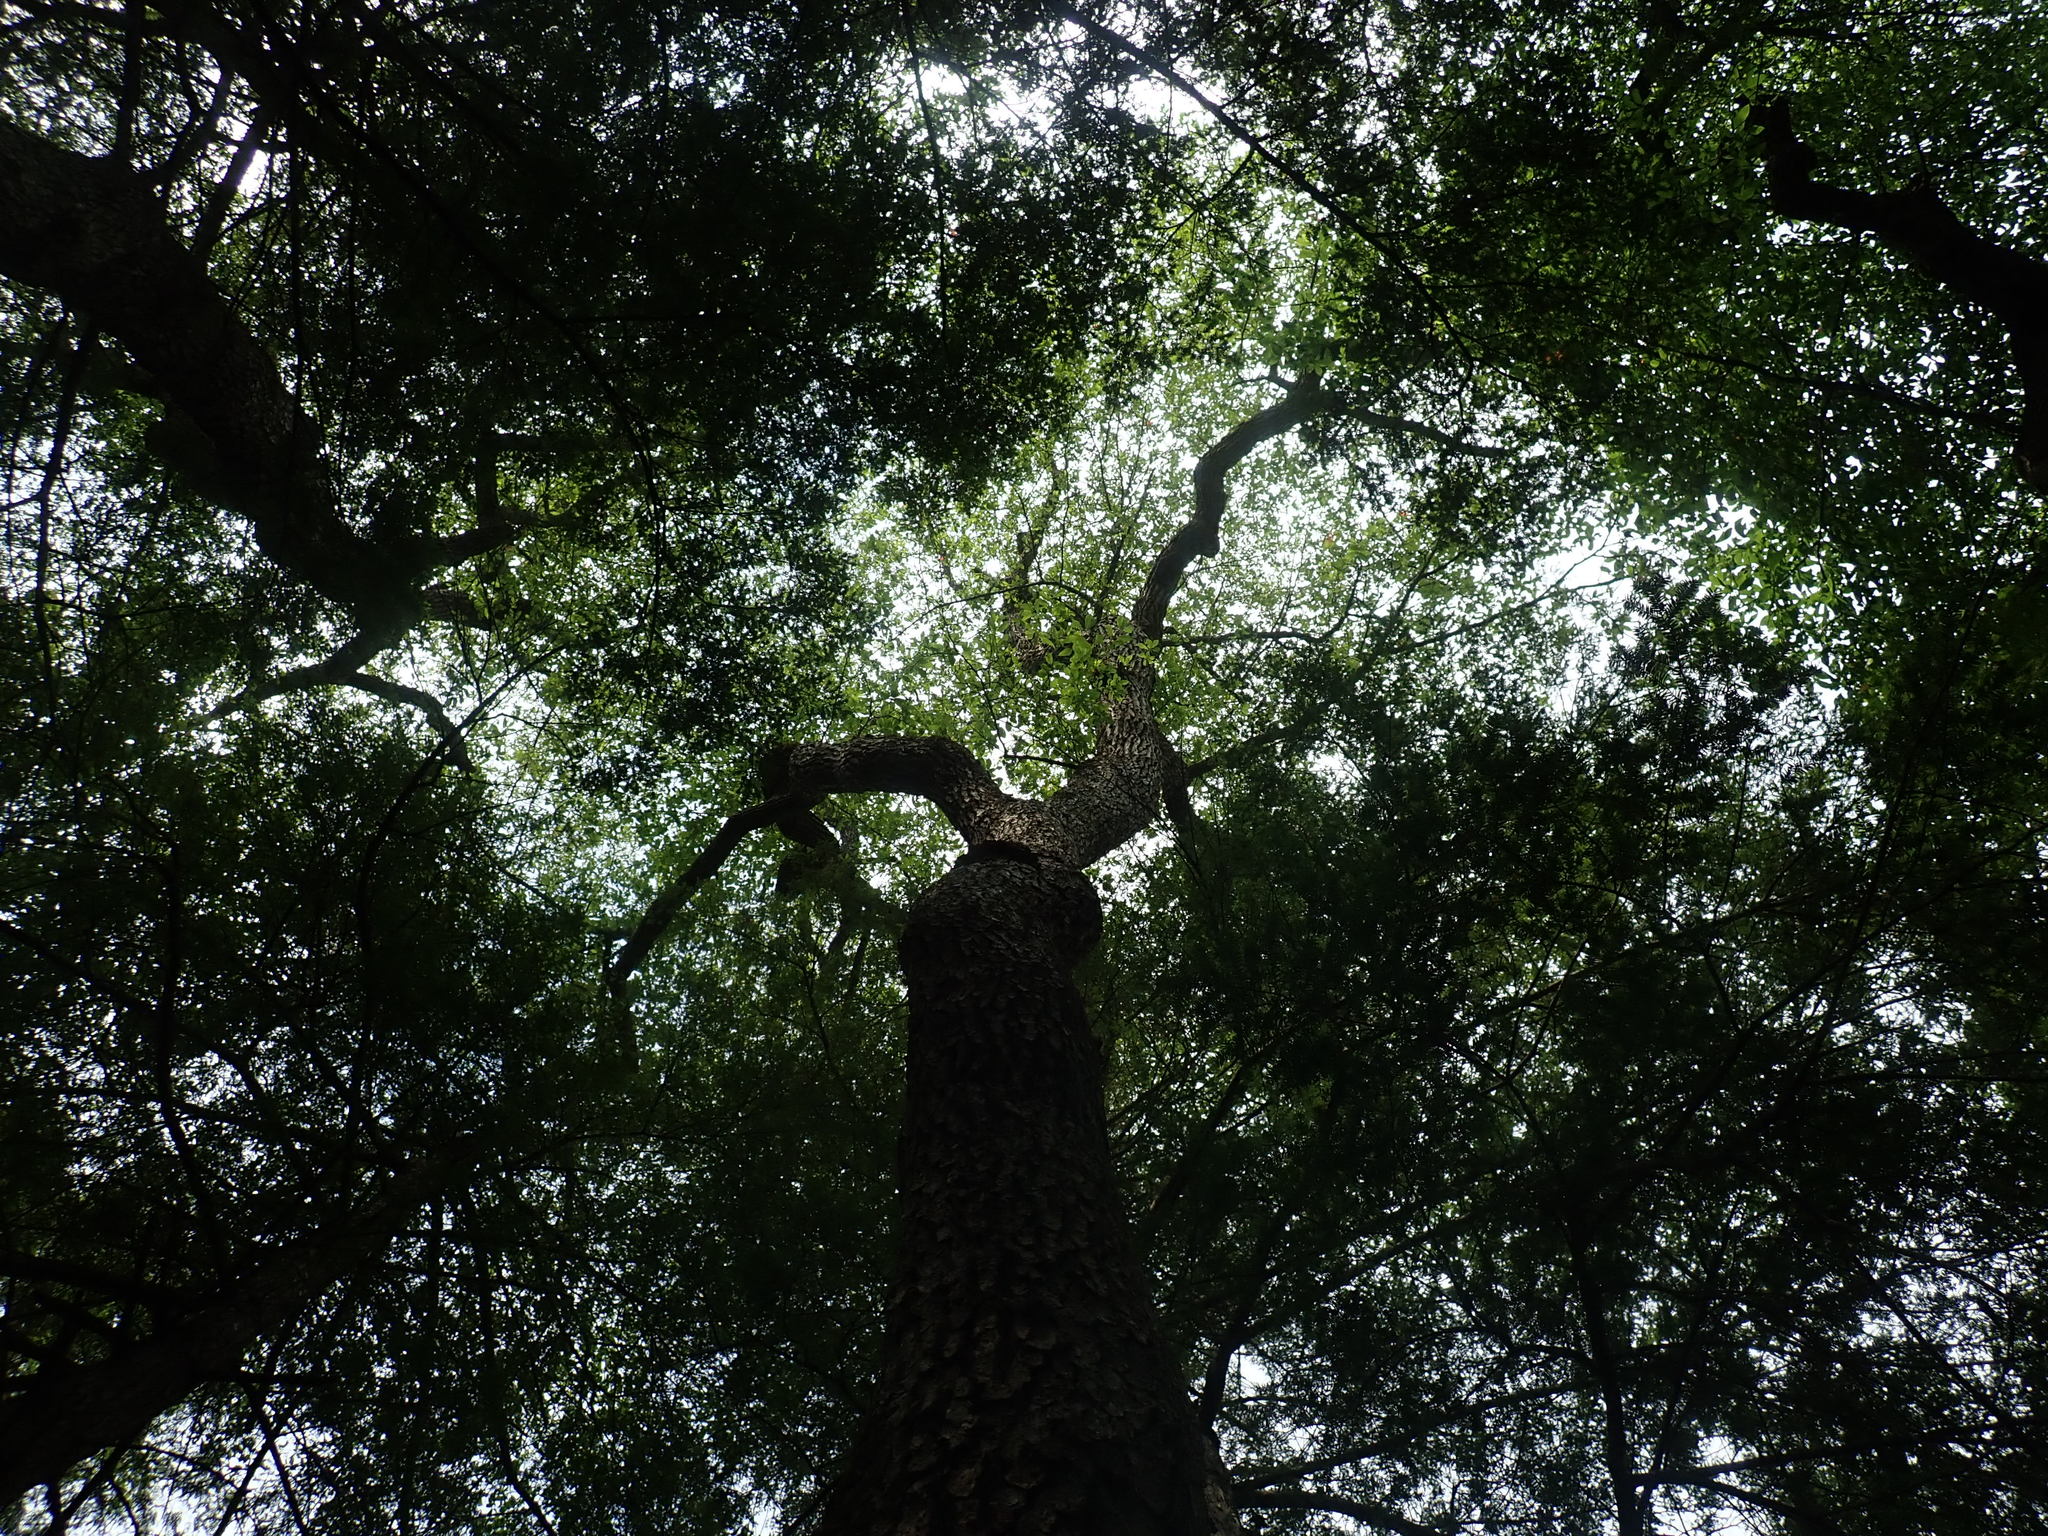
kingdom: Plantae
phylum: Tracheophyta
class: Magnoliopsida
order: Cornales
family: Nyssaceae
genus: Nyssa
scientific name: Nyssa sylvatica
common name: Black tupelo
